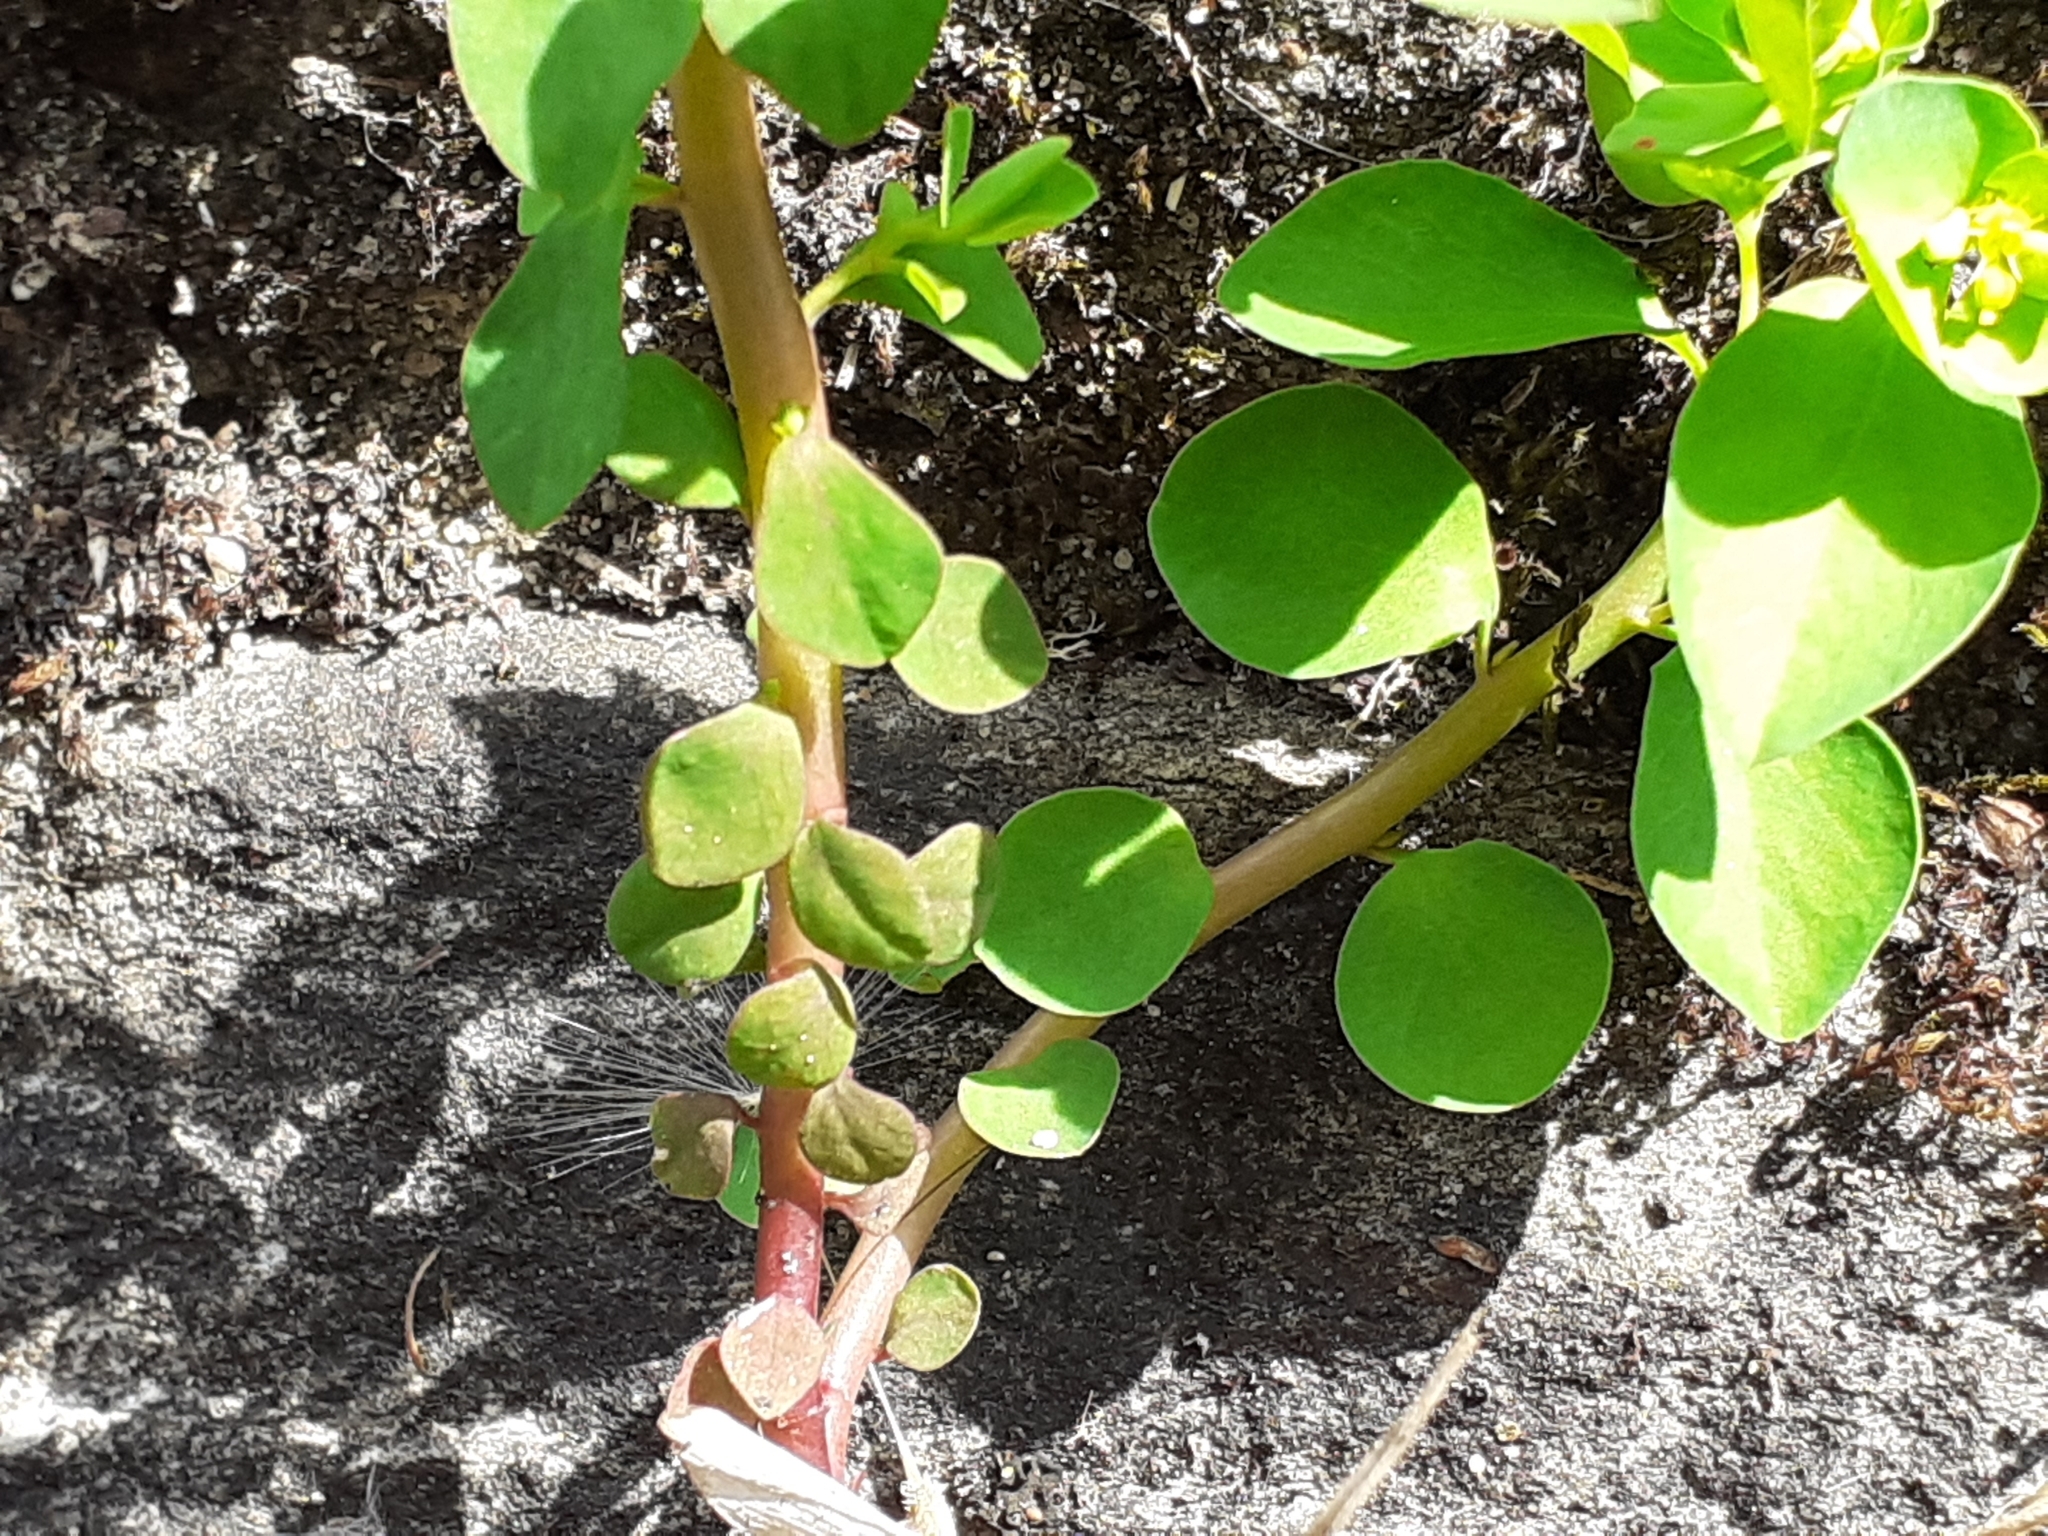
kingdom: Plantae
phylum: Tracheophyta
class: Magnoliopsida
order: Malpighiales
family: Euphorbiaceae
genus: Euphorbia
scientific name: Euphorbia peplus
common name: Petty spurge
